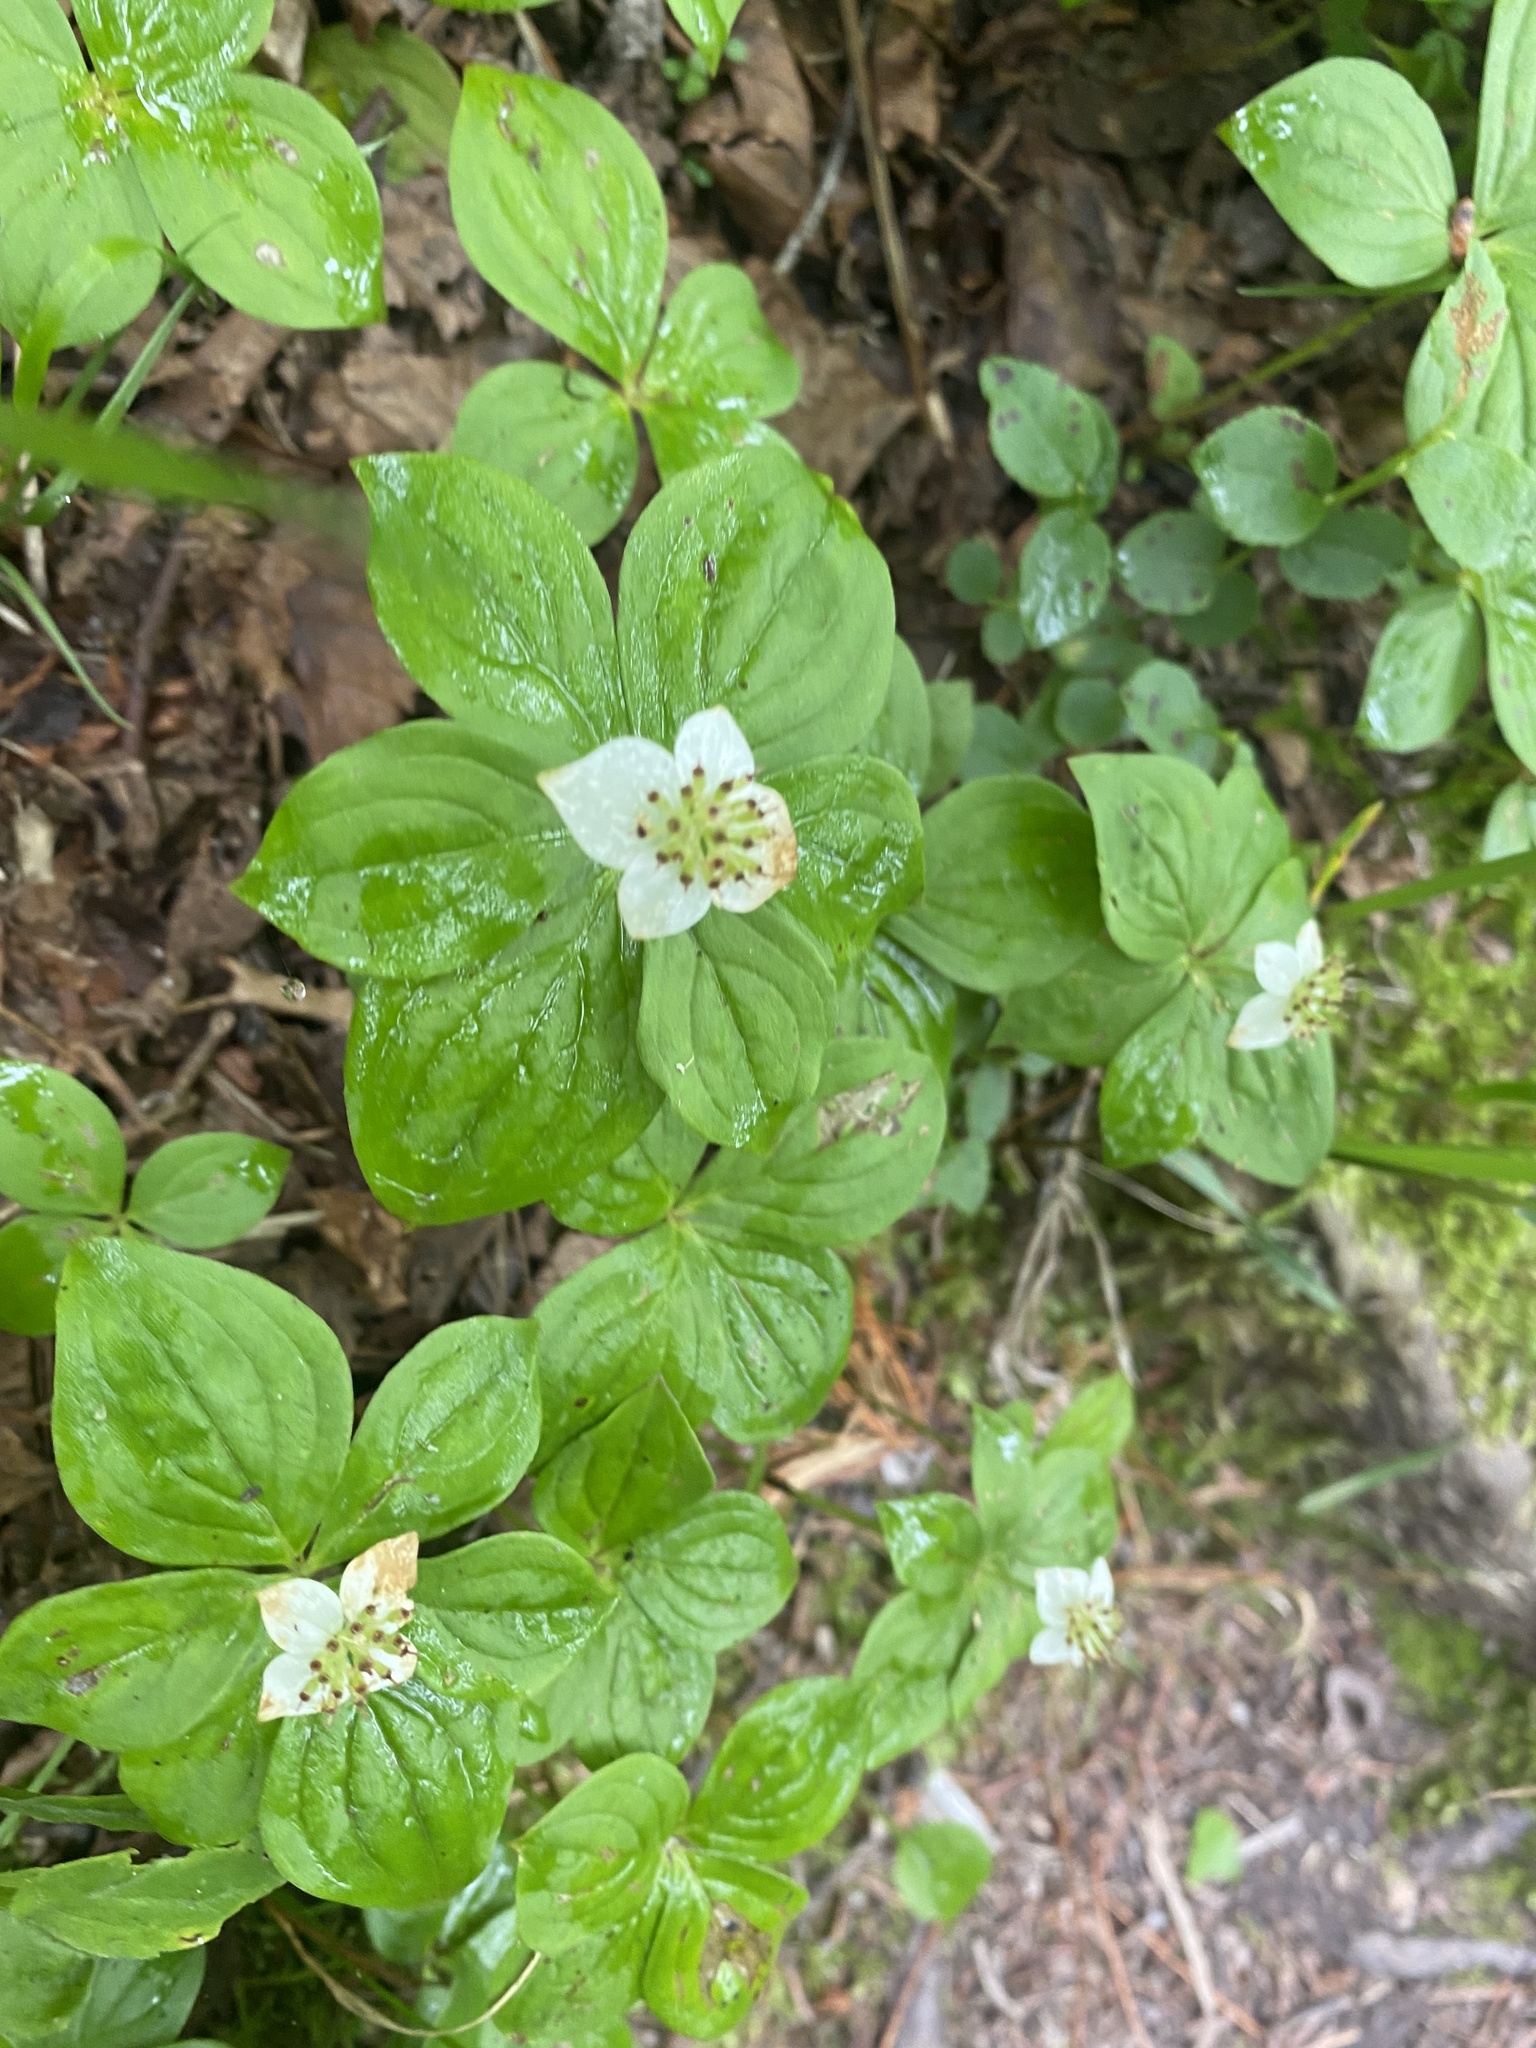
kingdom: Plantae
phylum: Tracheophyta
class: Magnoliopsida
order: Cornales
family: Cornaceae
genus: Cornus
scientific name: Cornus canadensis
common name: Creeping dogwood
